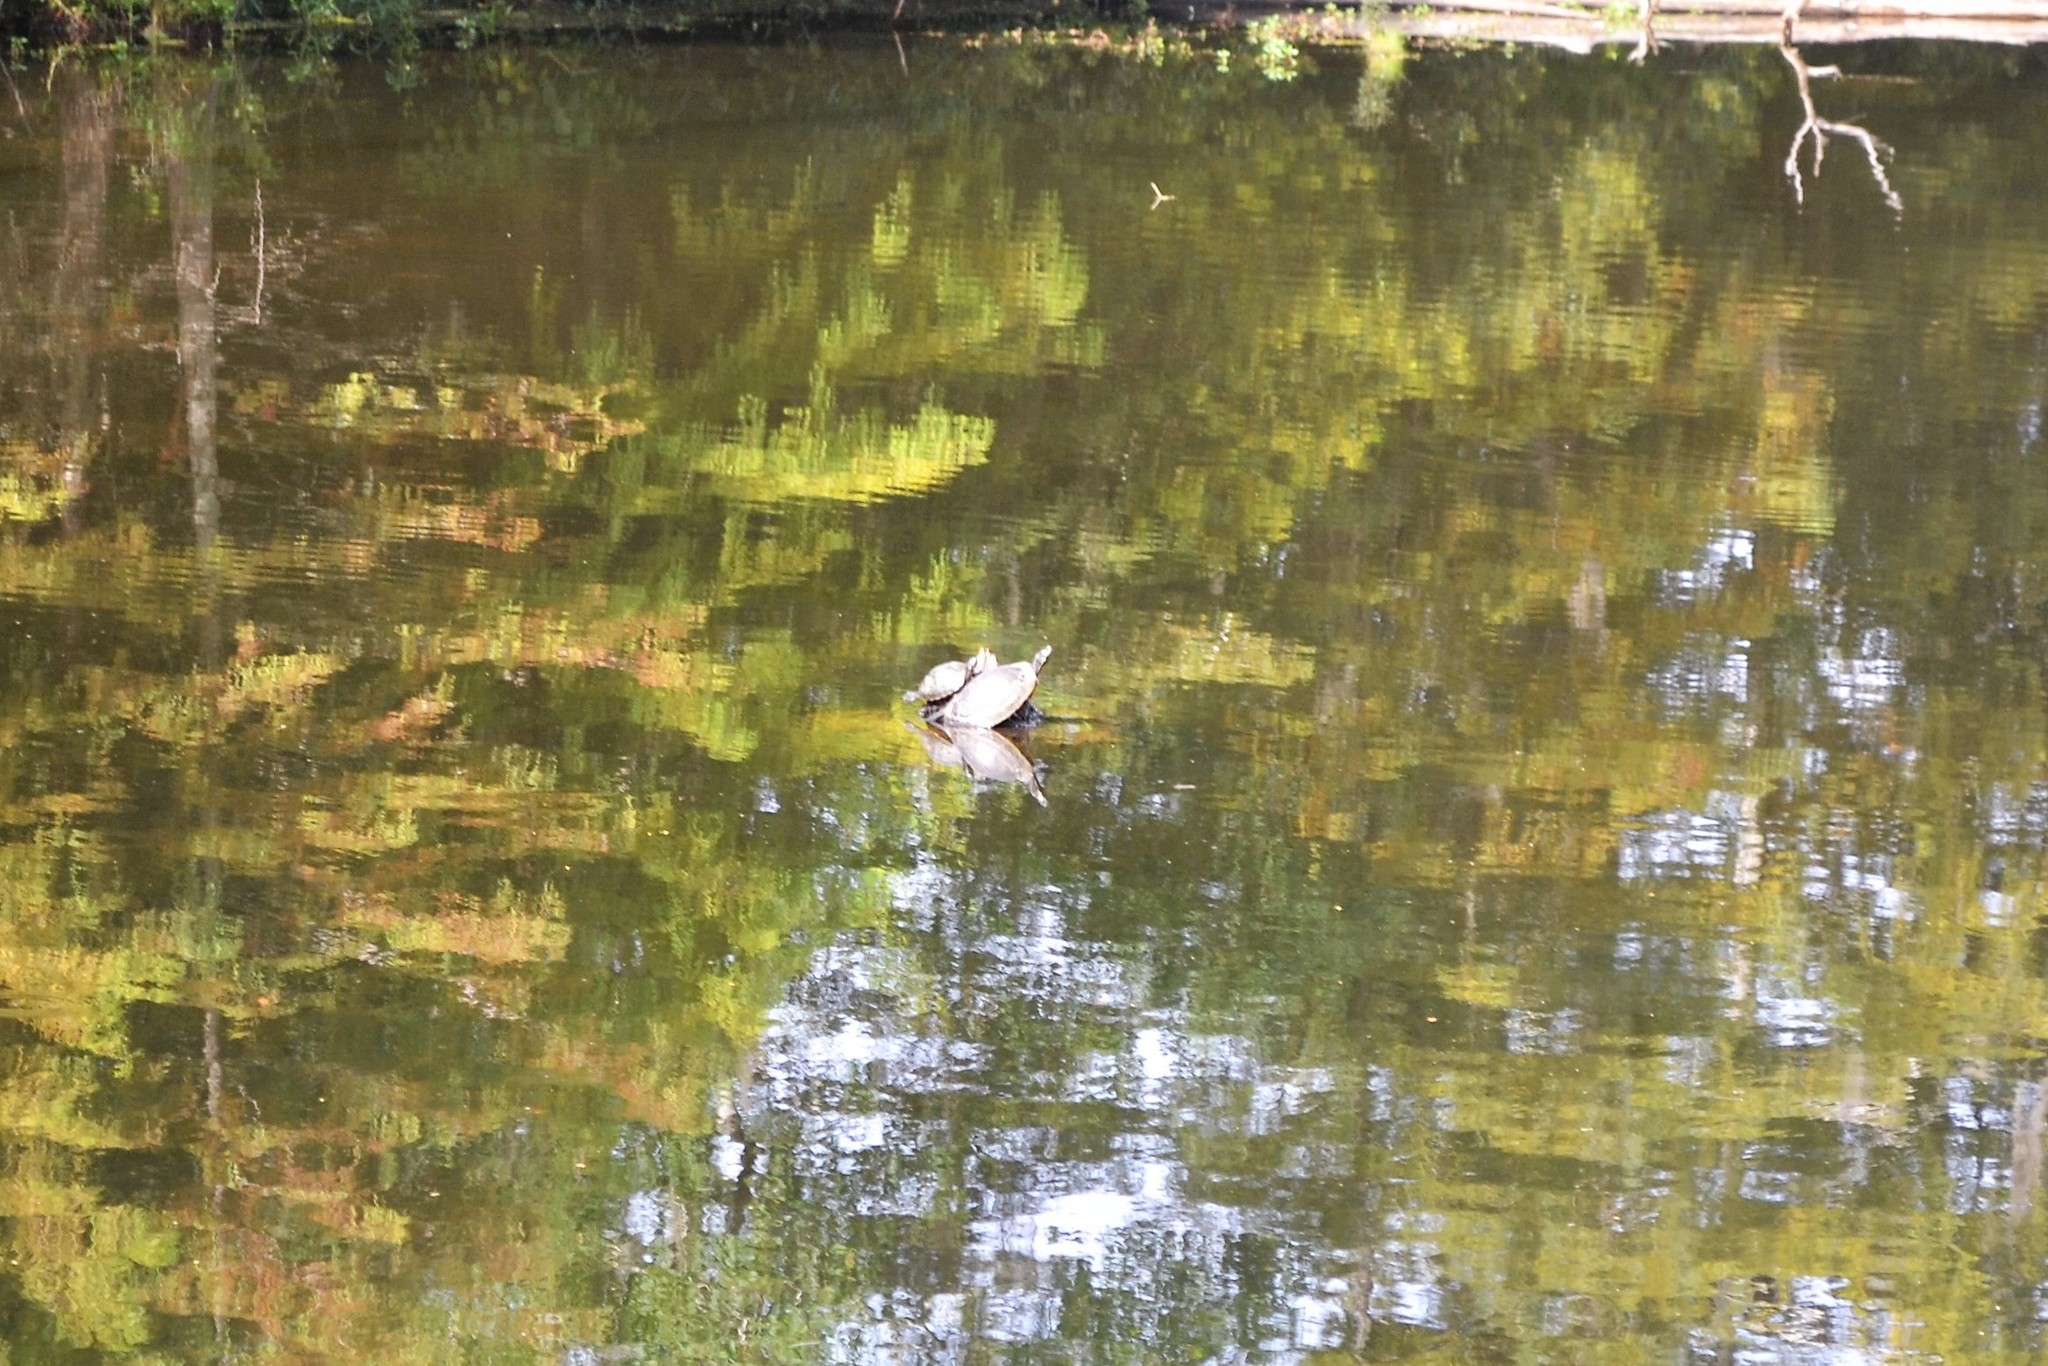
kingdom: Animalia
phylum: Chordata
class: Testudines
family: Emydidae
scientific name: Emydidae
